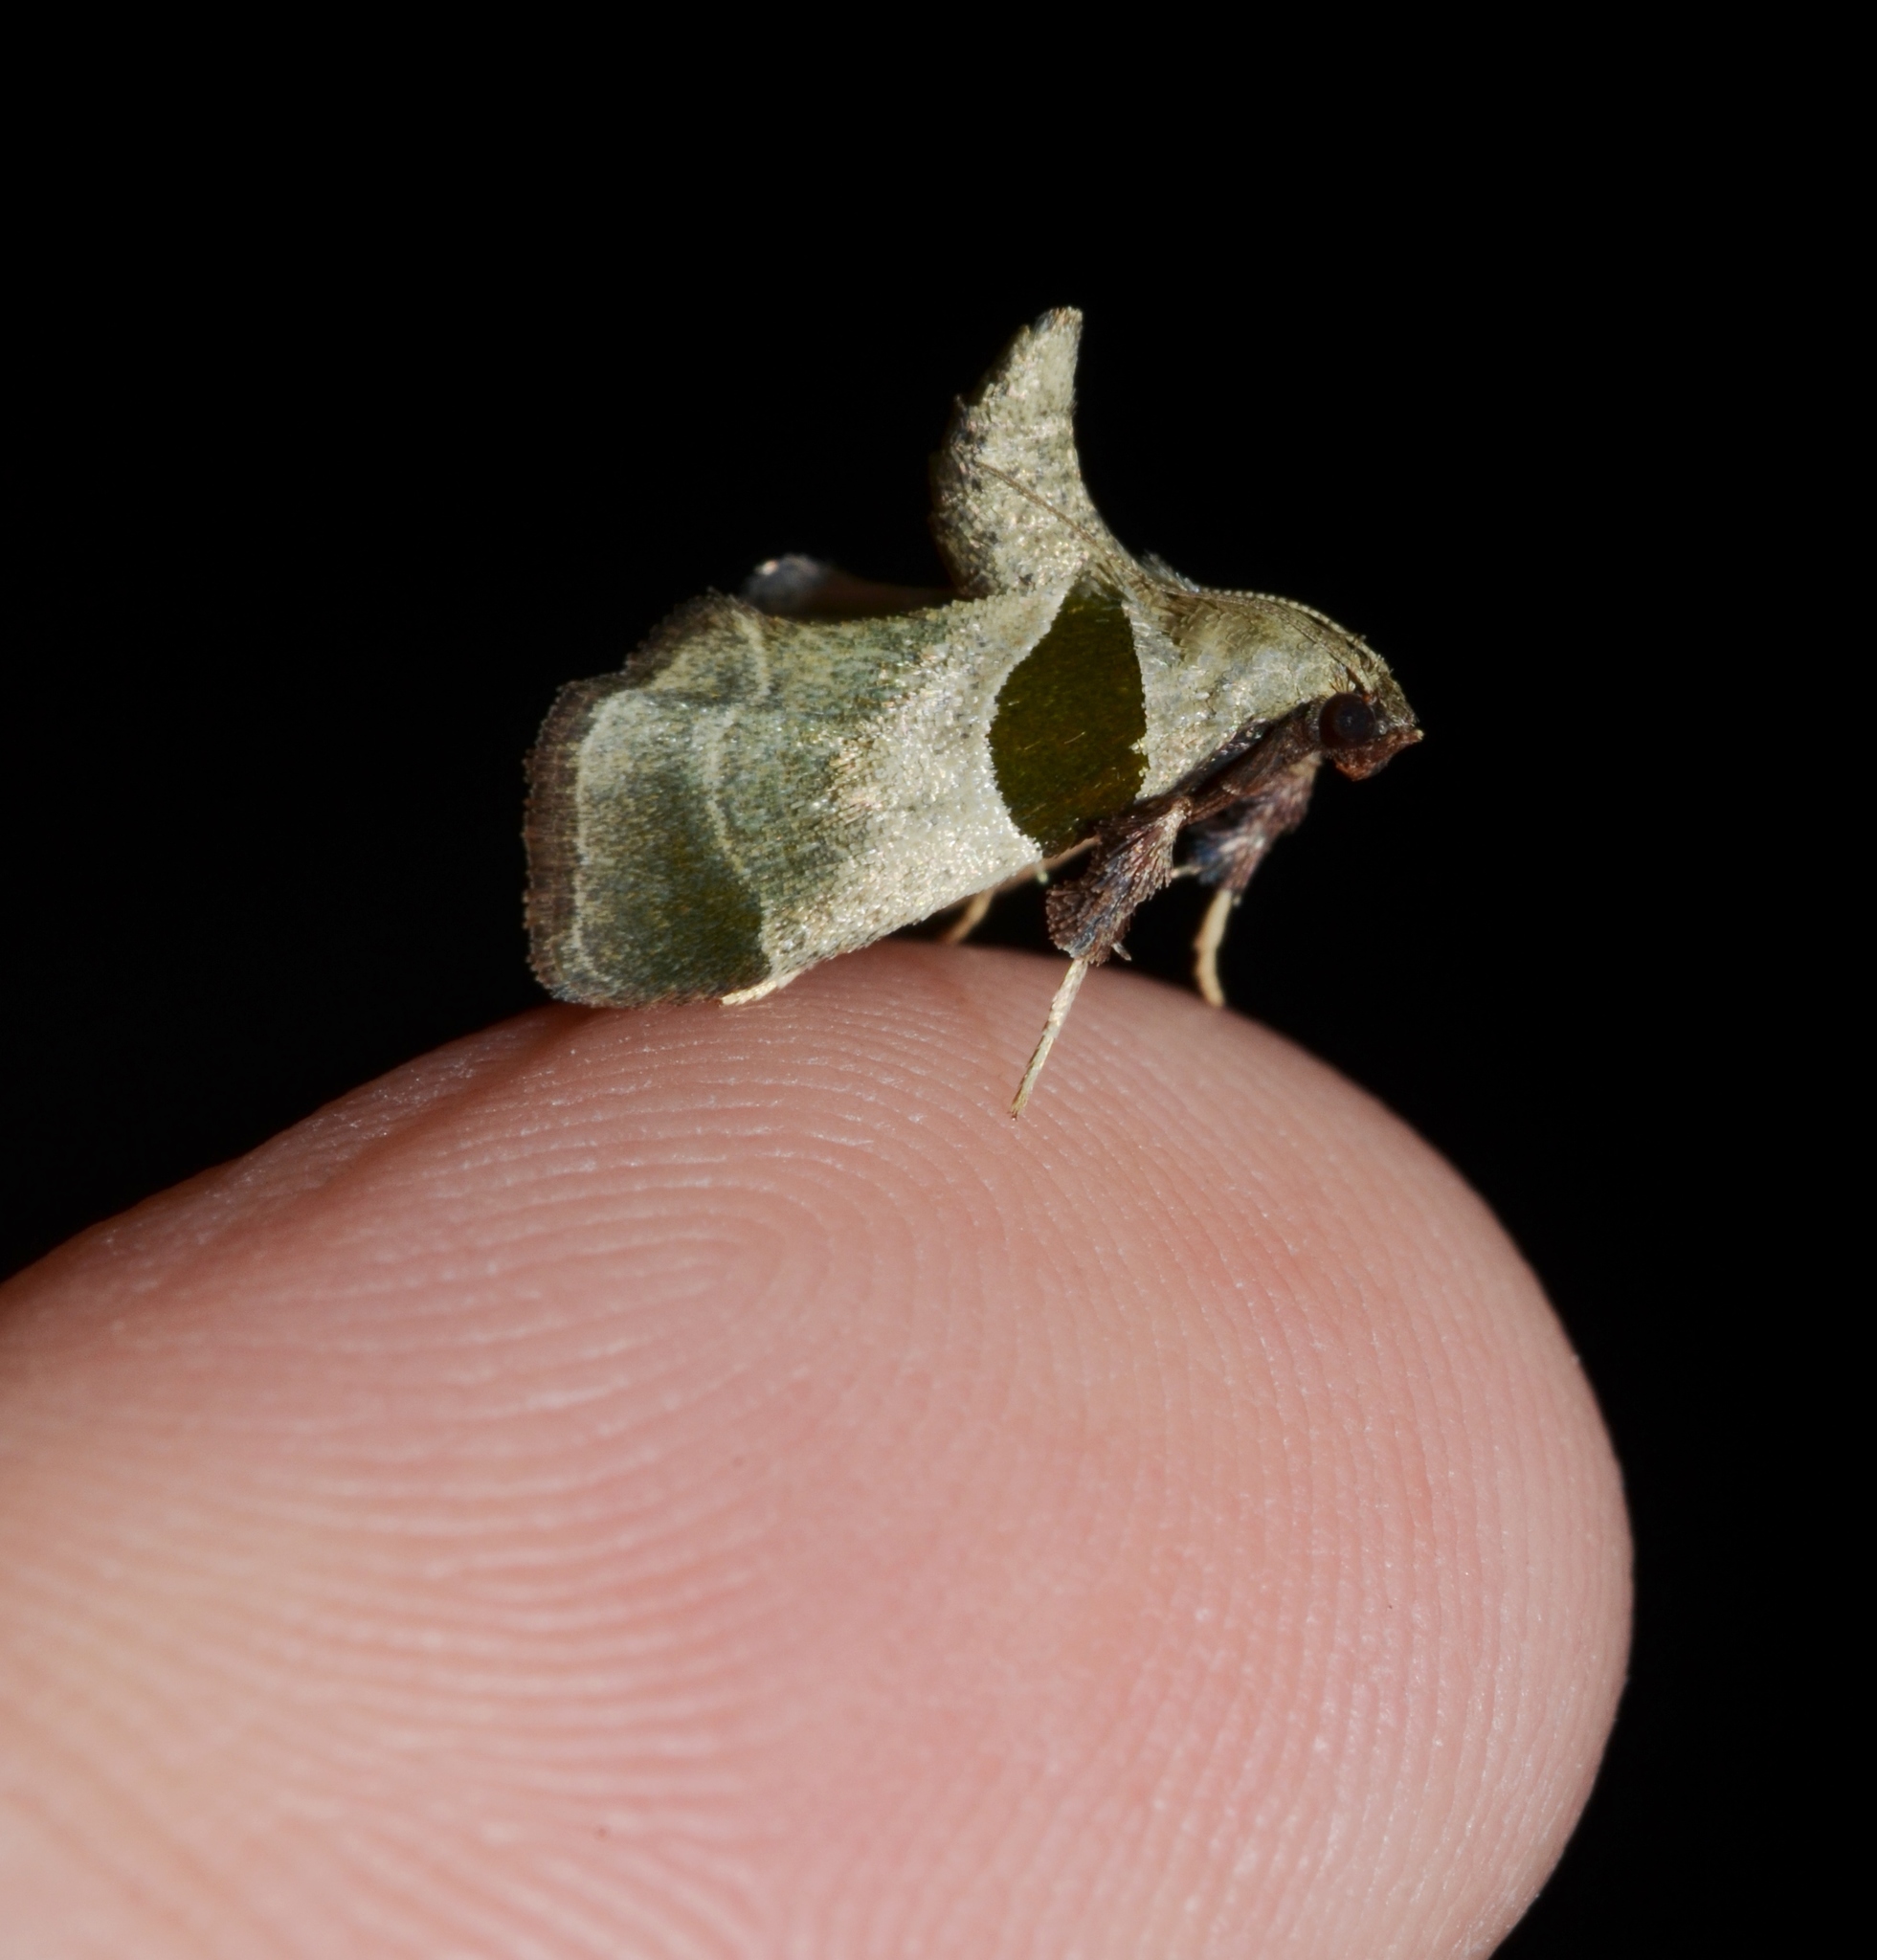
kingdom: Animalia
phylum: Arthropoda
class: Insecta
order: Lepidoptera
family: Pyralidae
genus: Tosale
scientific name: Tosale oviplagalis
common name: Dimorphic tosale moth
